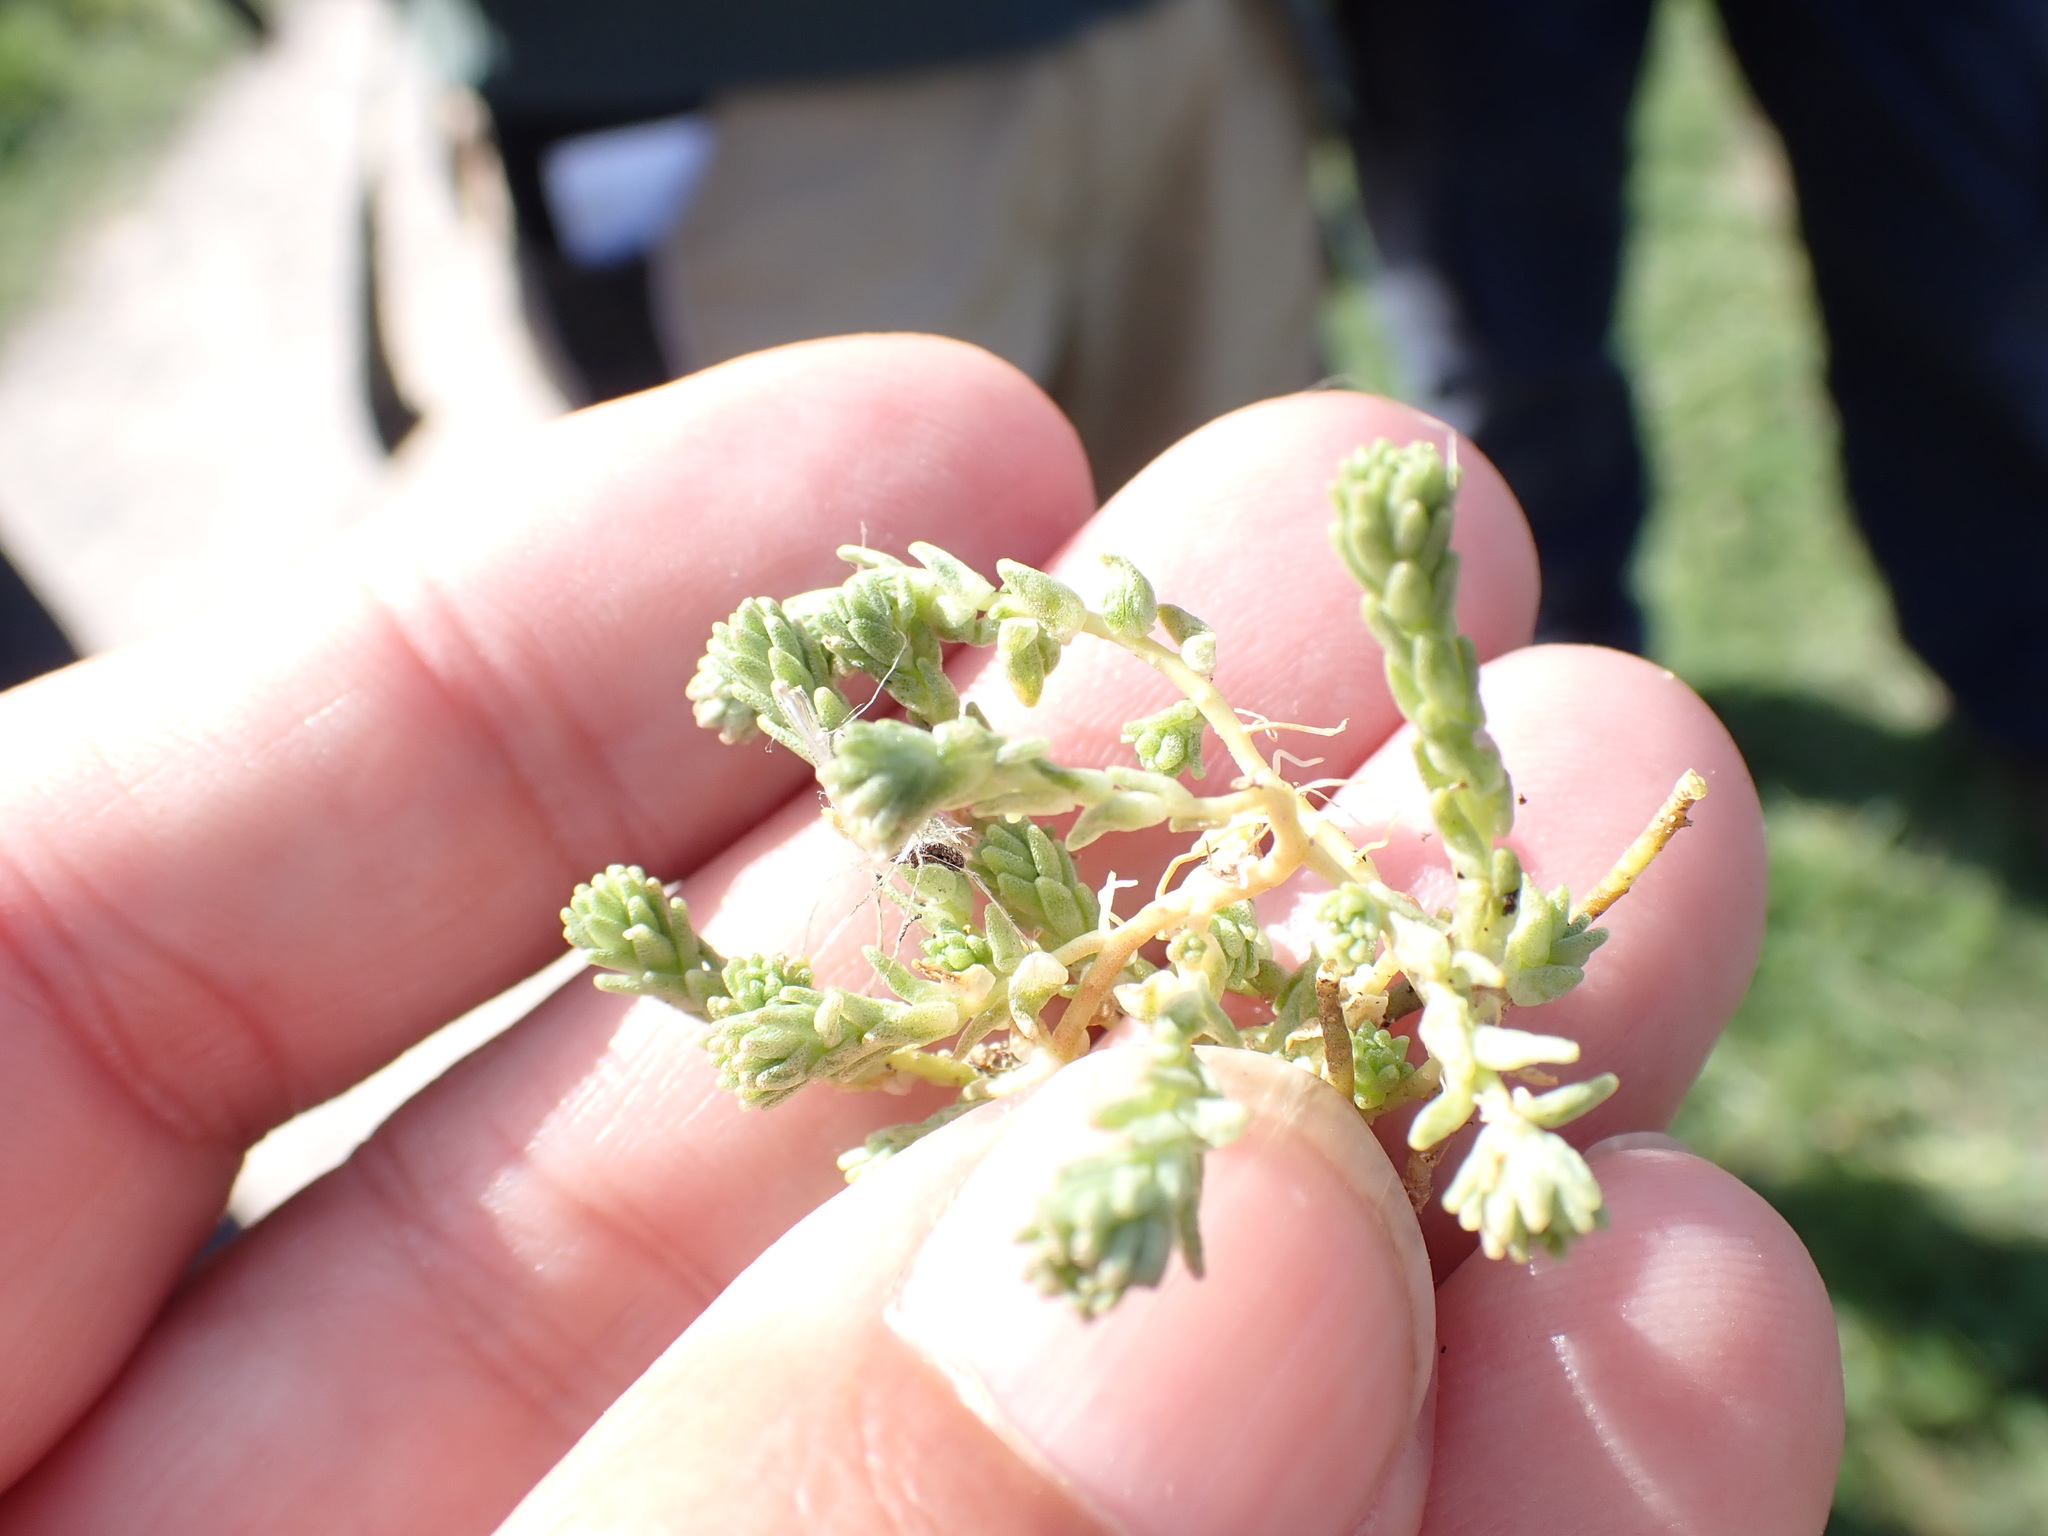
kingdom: Plantae
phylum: Tracheophyta
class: Magnoliopsida
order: Saxifragales
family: Crassulaceae
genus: Sedum
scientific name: Sedum acre
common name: Biting stonecrop
